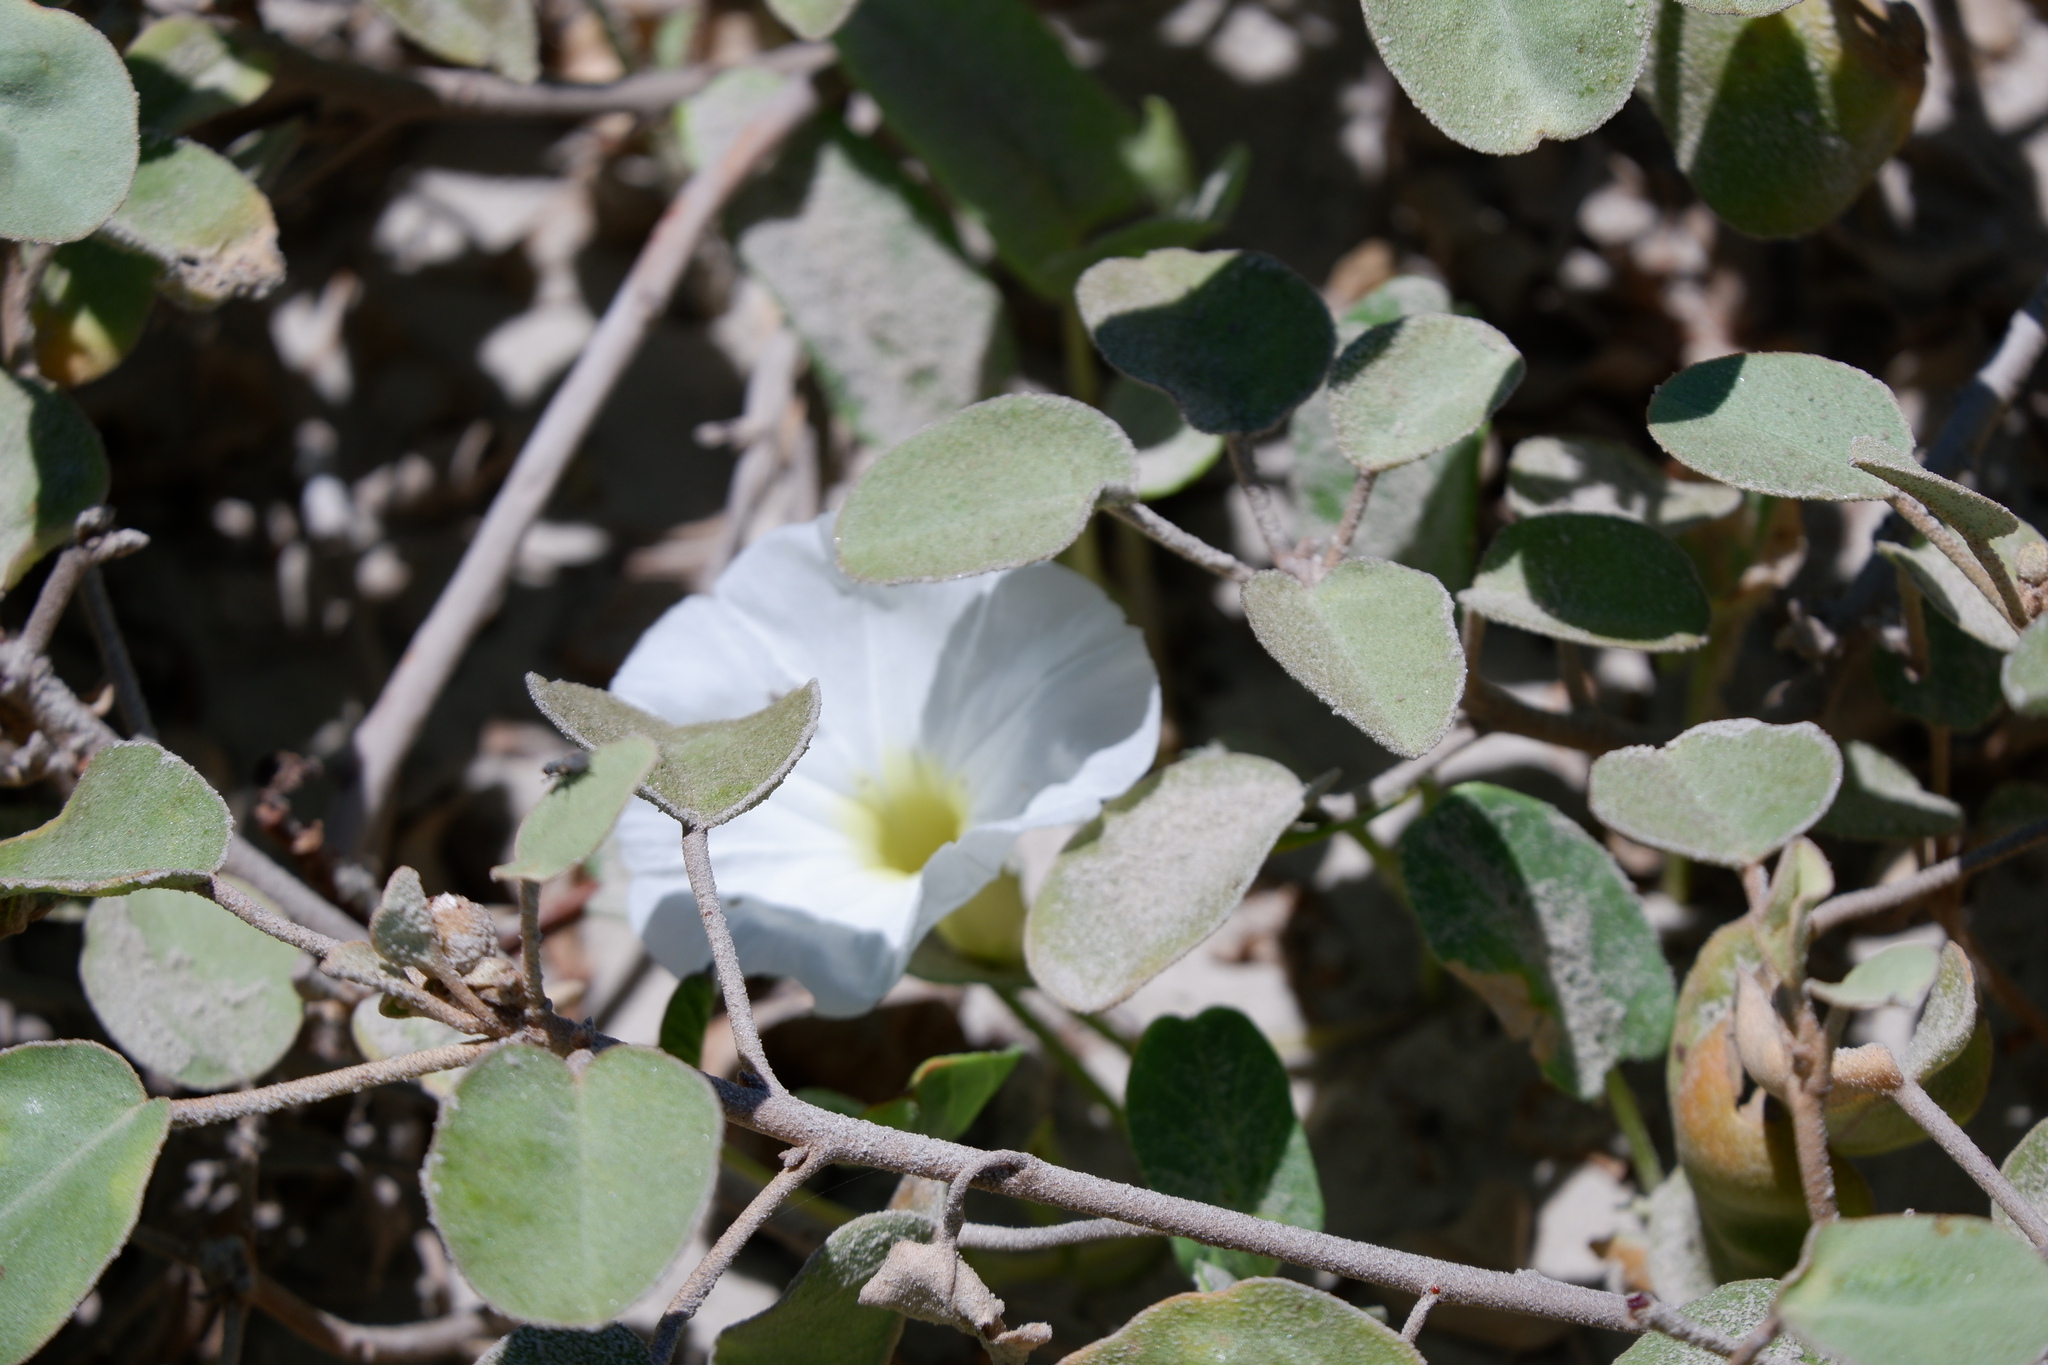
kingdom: Plantae
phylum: Tracheophyta
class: Magnoliopsida
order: Solanales
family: Convolvulaceae
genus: Ipomoea
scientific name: Ipomoea imperati
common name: Fiddle-leaf morning-glory
